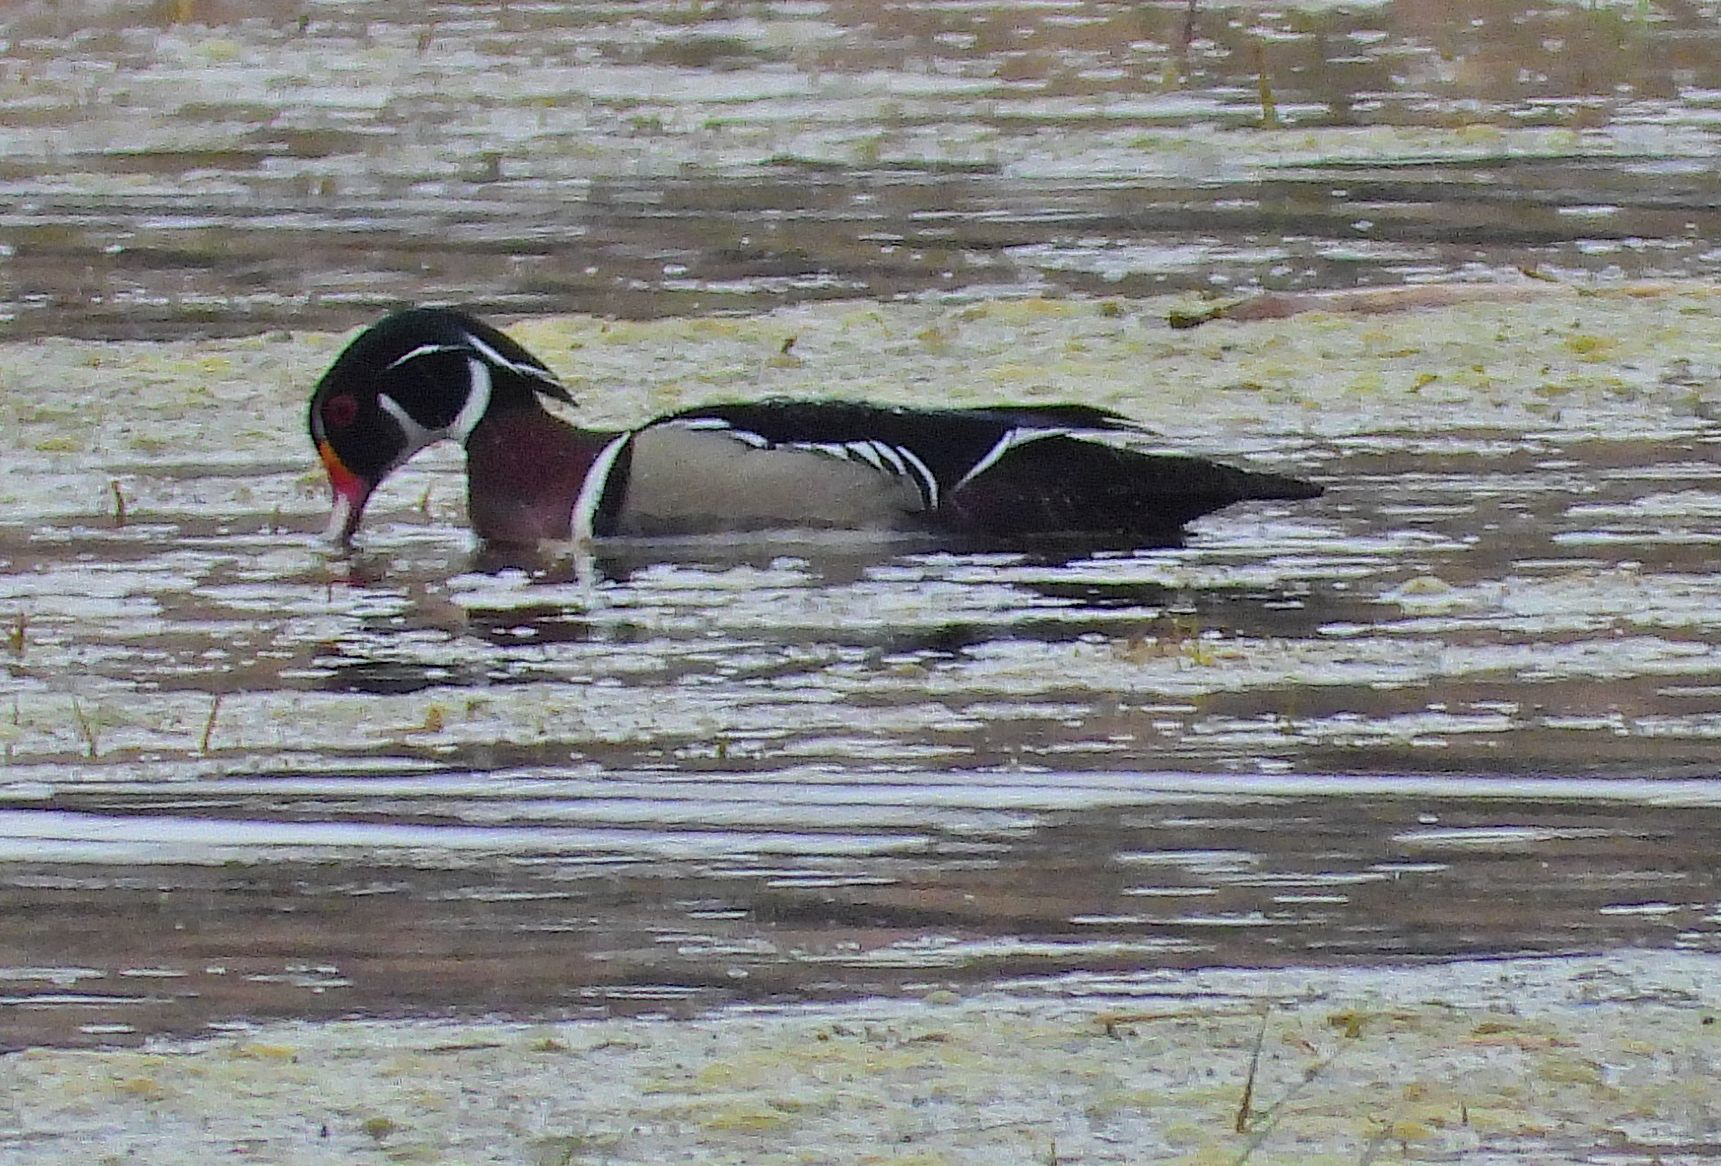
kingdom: Animalia
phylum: Chordata
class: Aves
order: Anseriformes
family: Anatidae
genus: Aix
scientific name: Aix sponsa
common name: Wood duck
